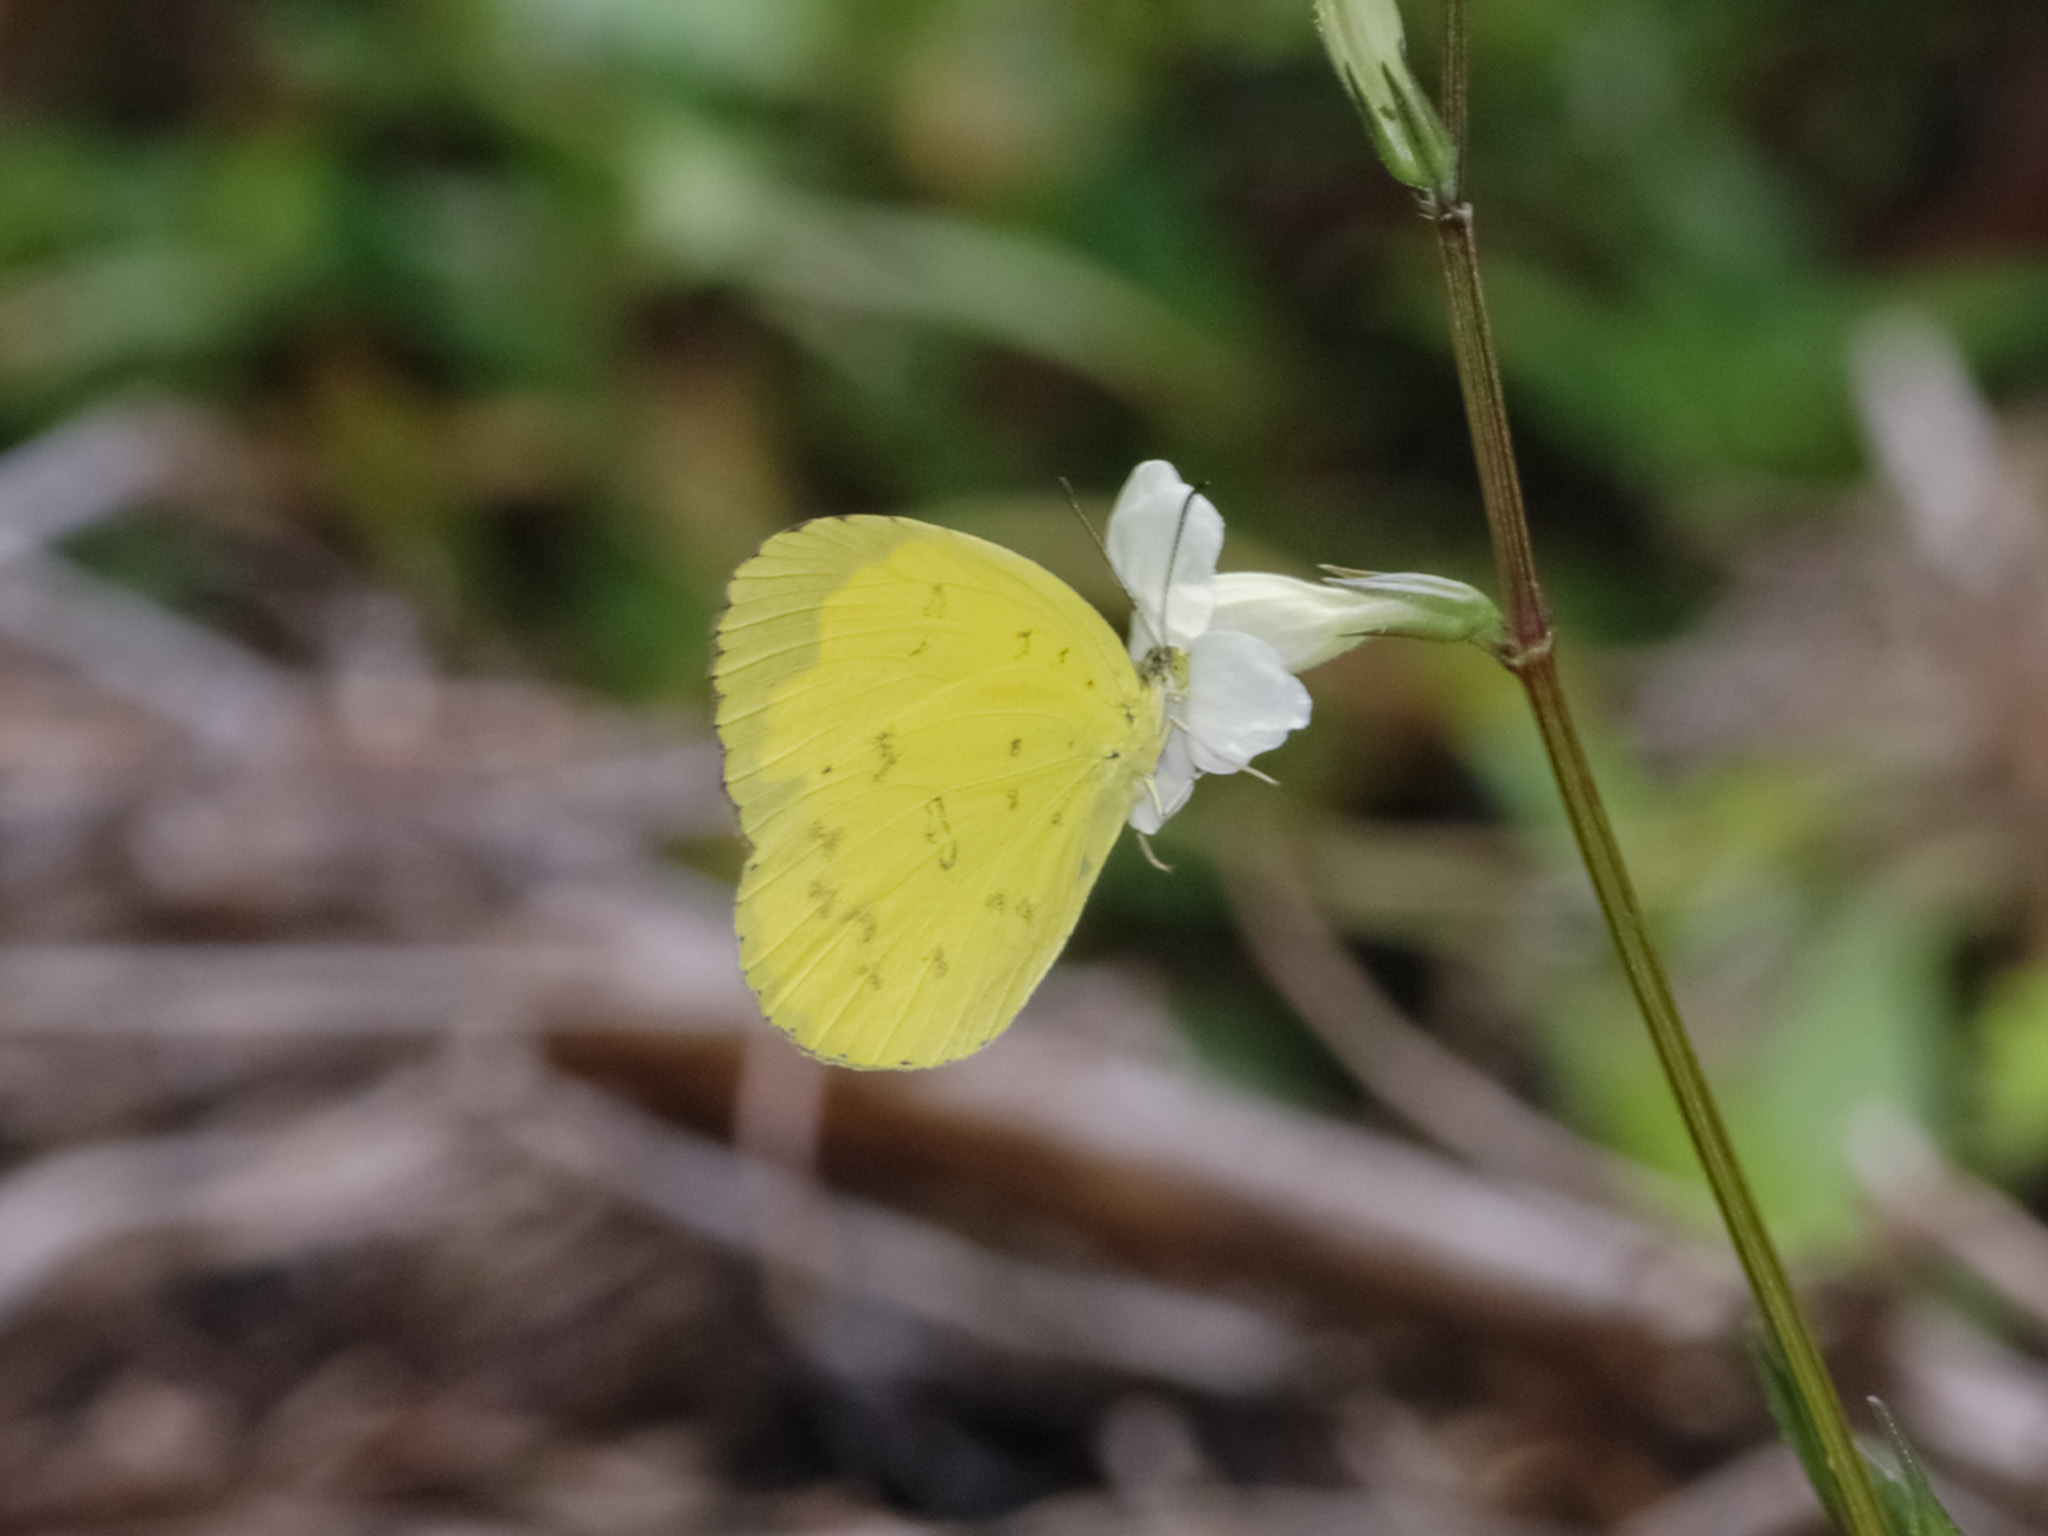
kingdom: Animalia
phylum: Arthropoda
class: Insecta
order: Lepidoptera
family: Pieridae
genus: Eurema
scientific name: Eurema blanda
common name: Three-spot grass yellow
